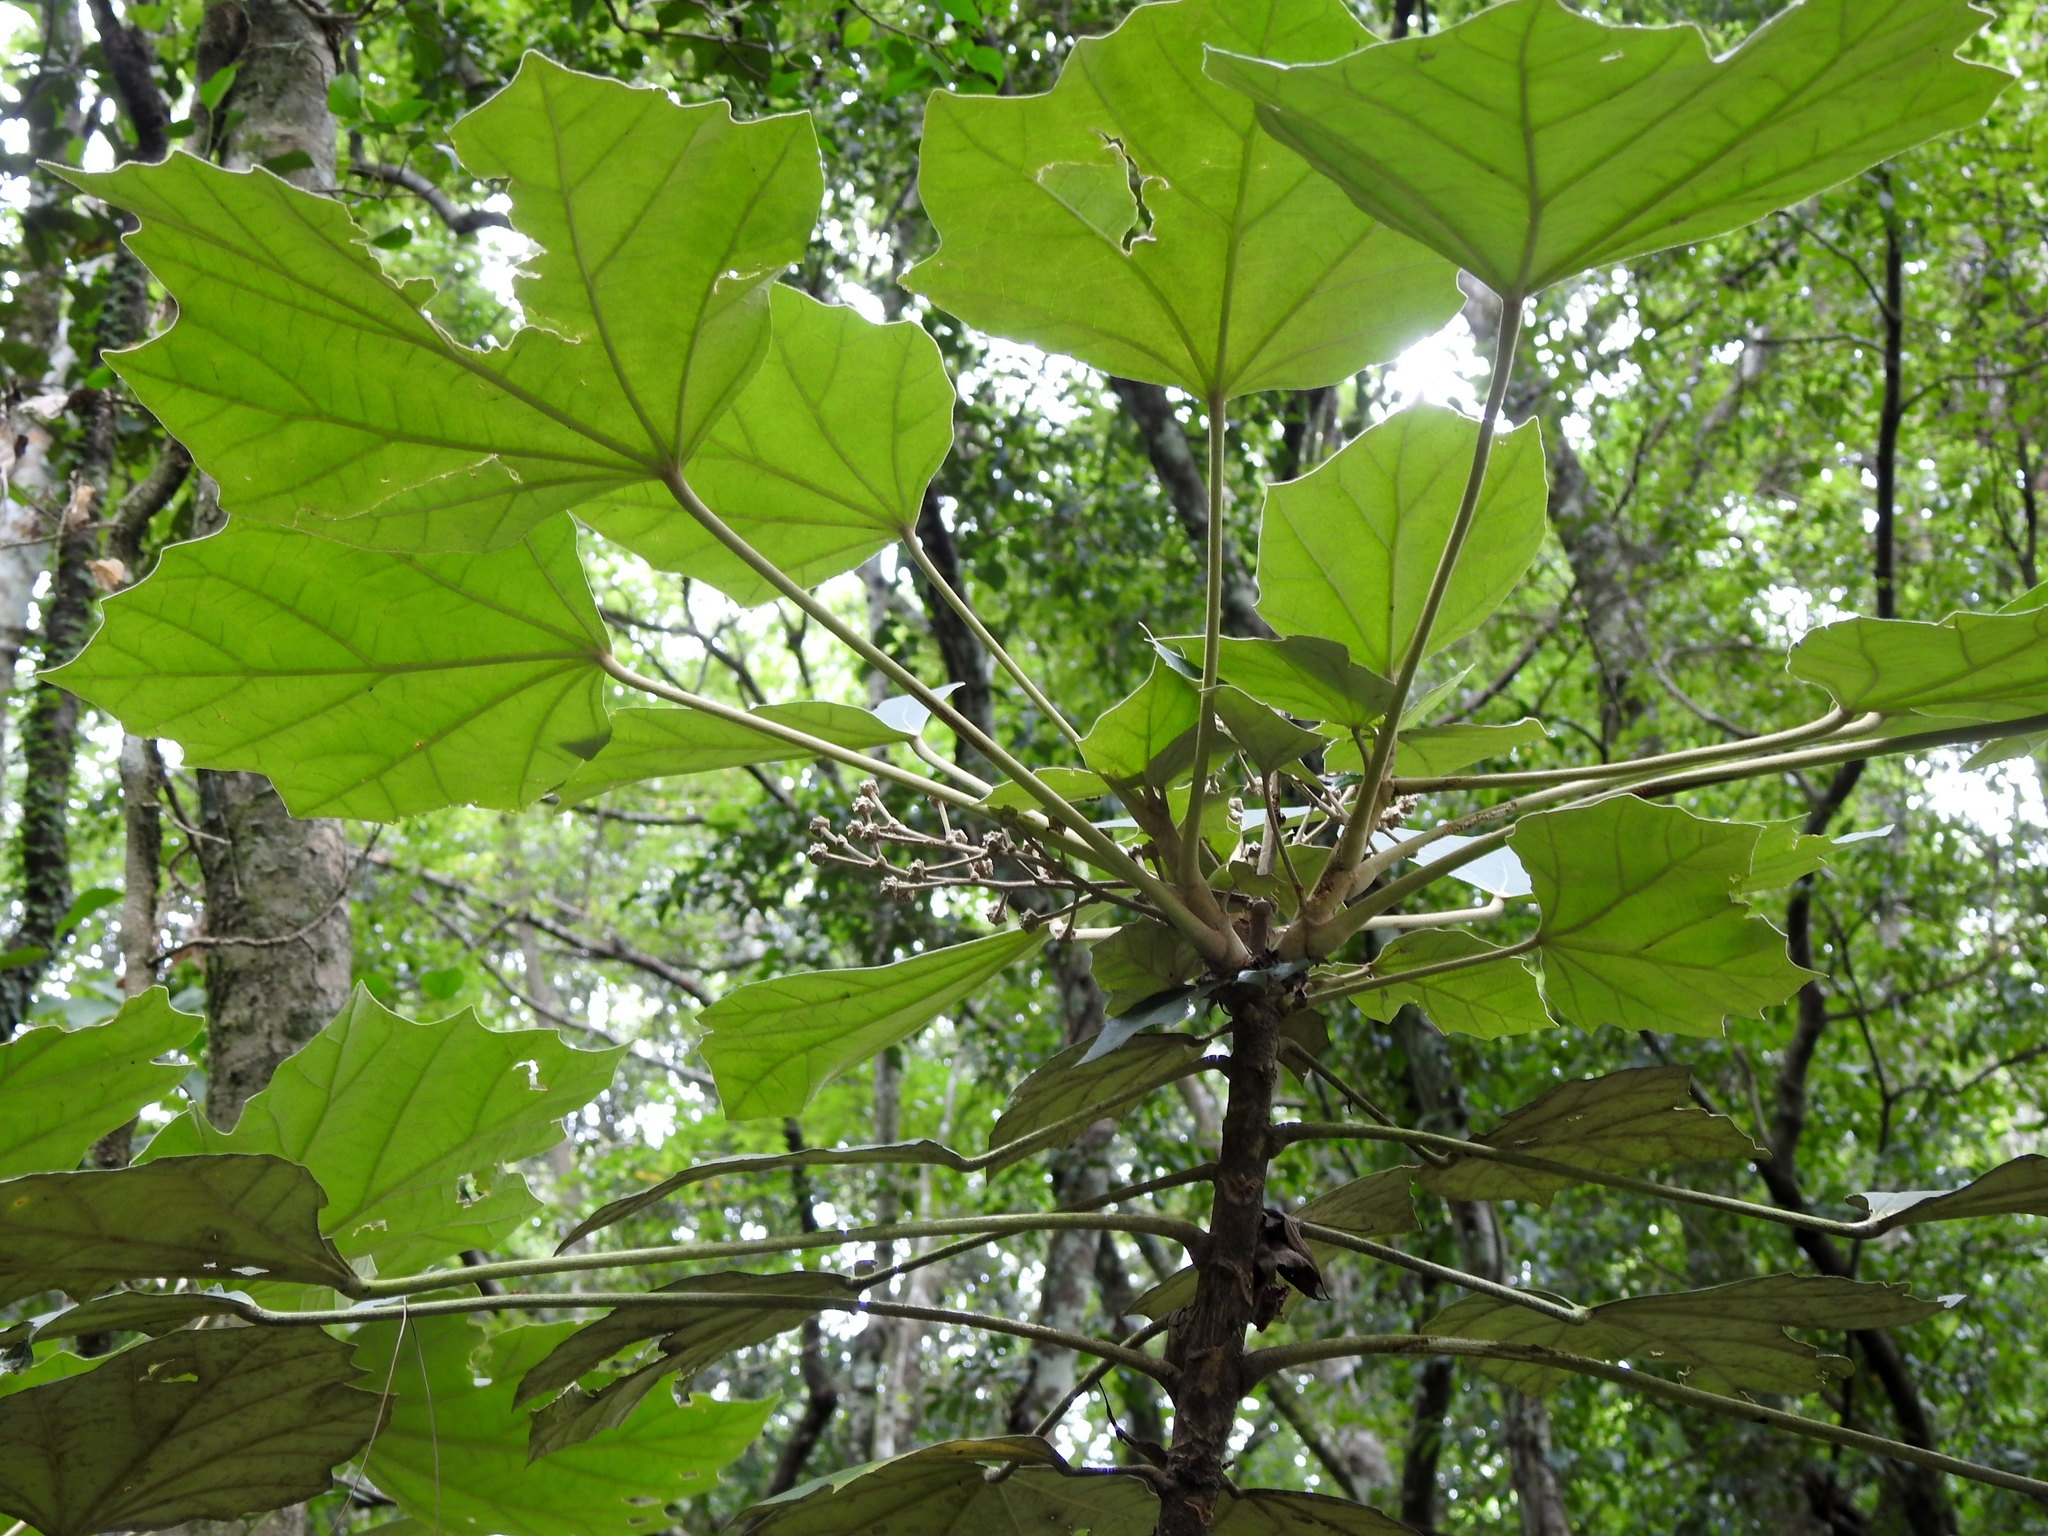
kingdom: Plantae
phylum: Tracheophyta
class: Magnoliopsida
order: Apiales
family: Araliaceae
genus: Sinopanax
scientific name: Sinopanax formosanus
